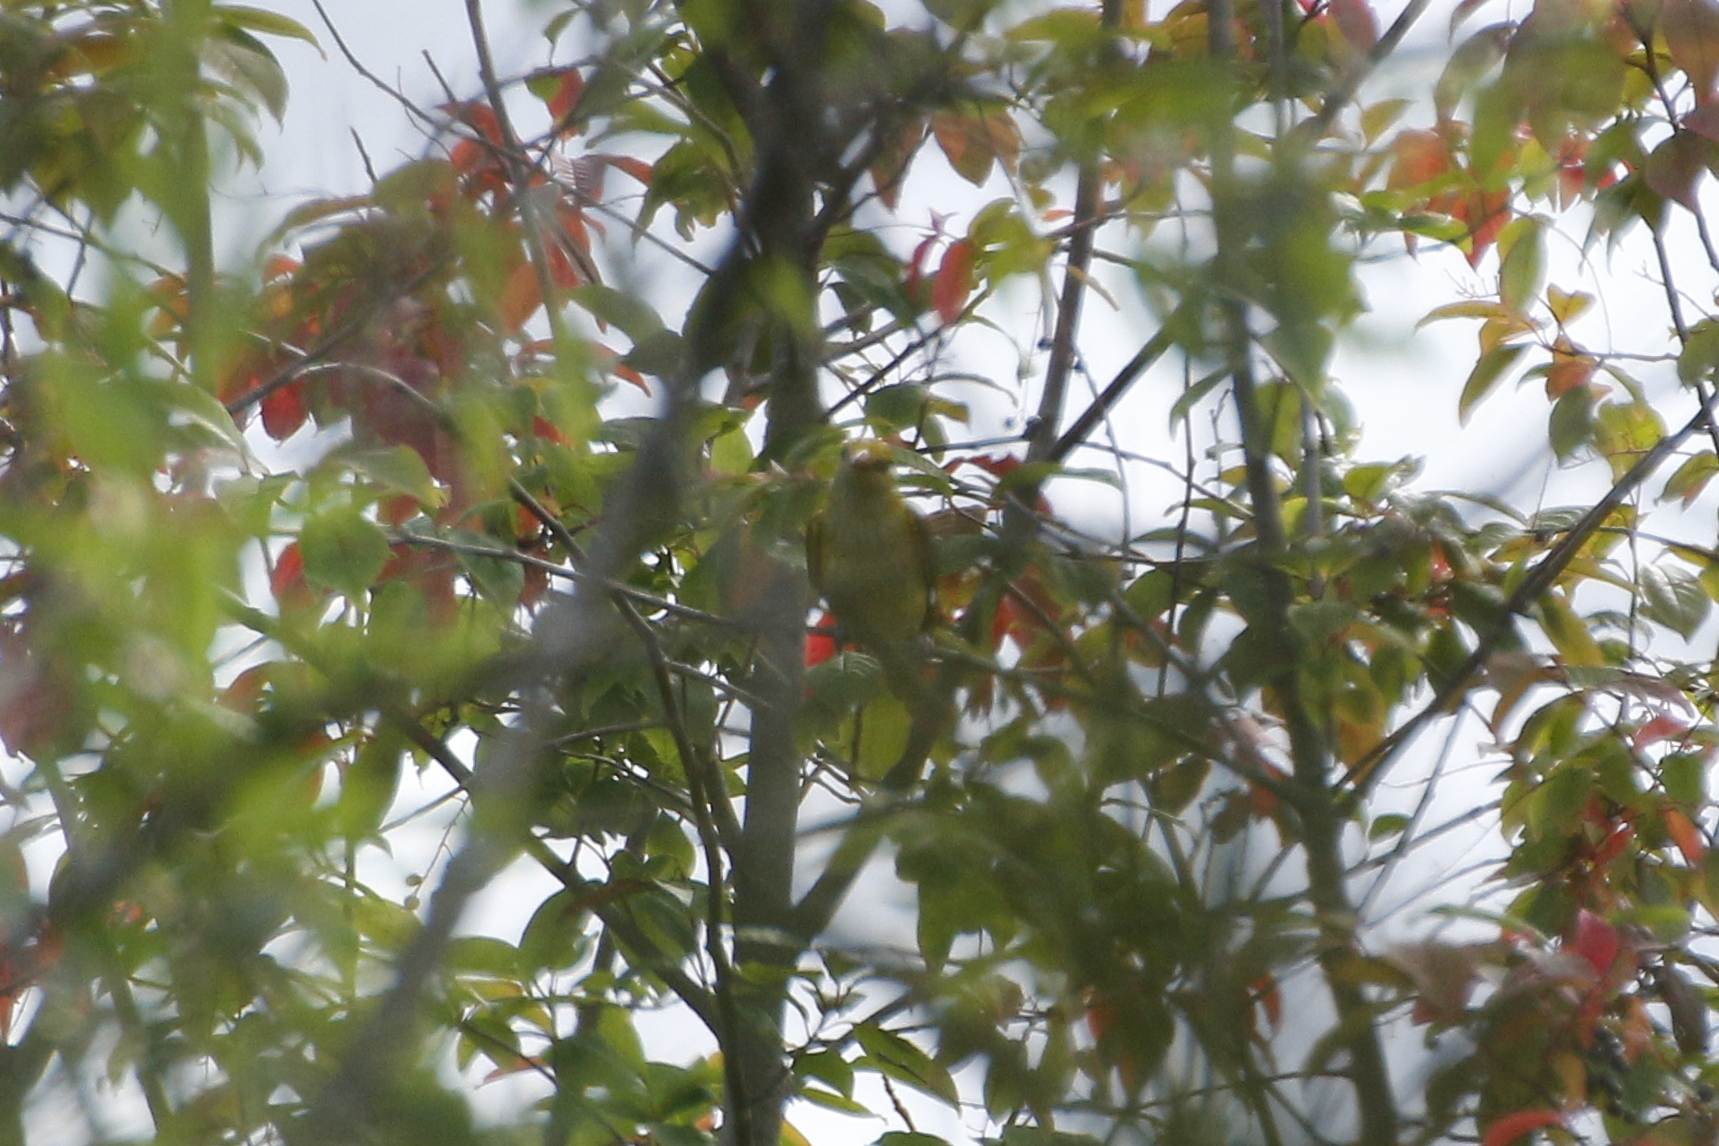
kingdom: Animalia
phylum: Chordata
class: Aves
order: Passeriformes
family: Oriolidae
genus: Oriolus
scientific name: Oriolus oriolus
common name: Eurasian golden oriole
